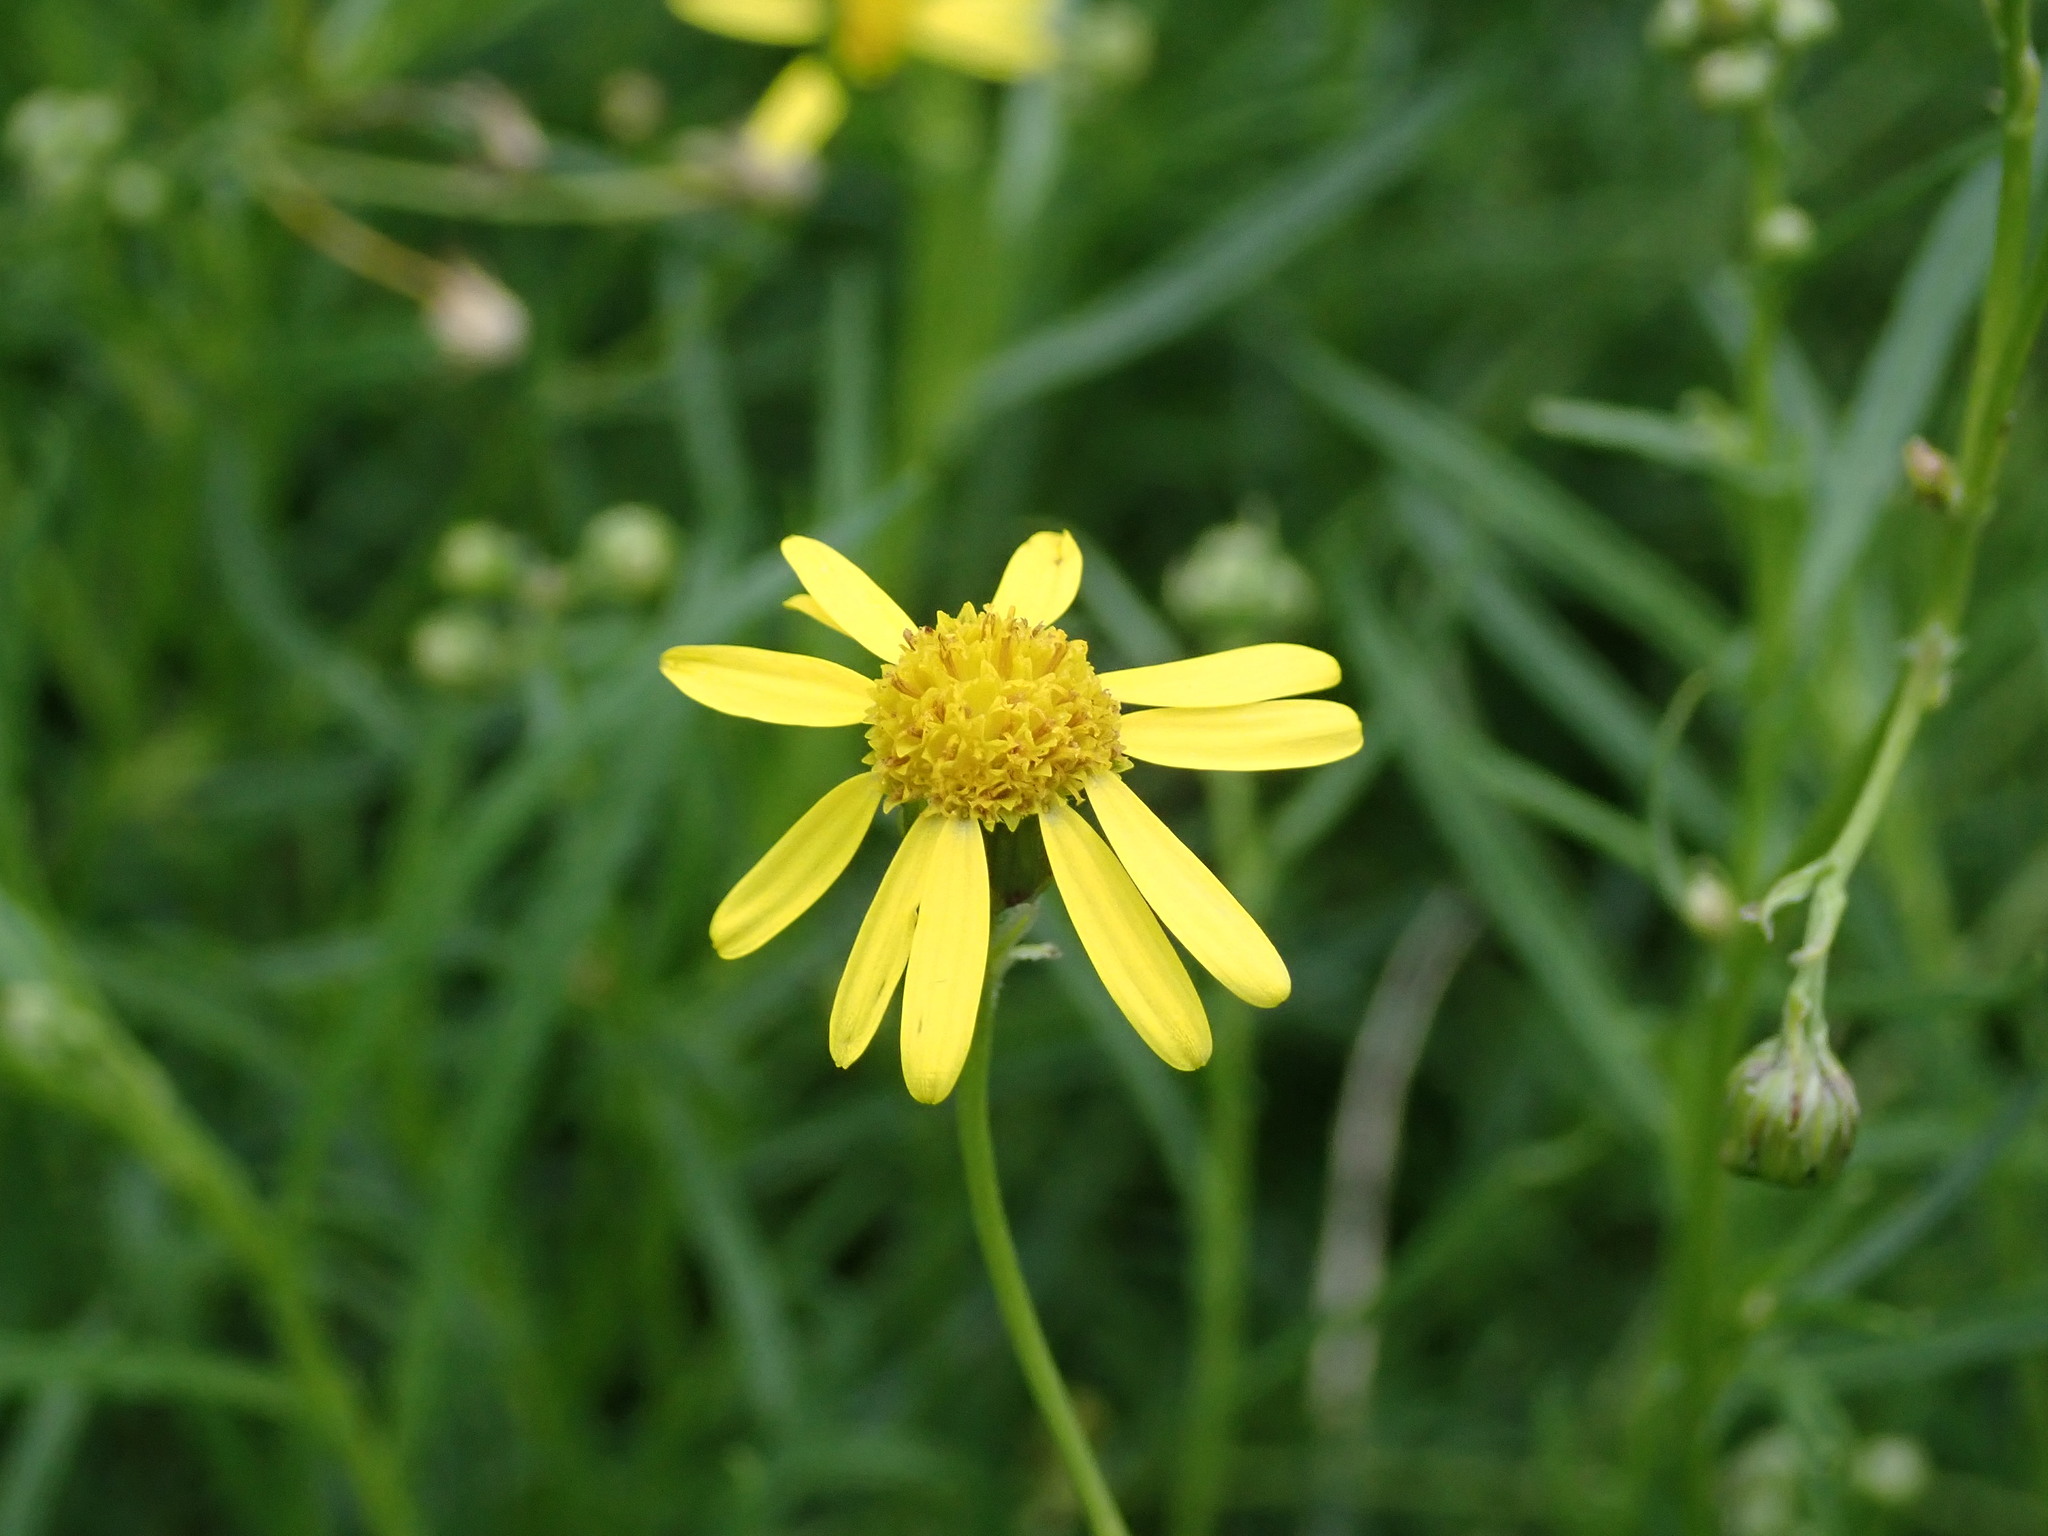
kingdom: Plantae
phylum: Tracheophyta
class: Magnoliopsida
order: Asterales
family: Asteraceae
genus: Senecio
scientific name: Senecio inaequidens
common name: Narrow-leaved ragwort
